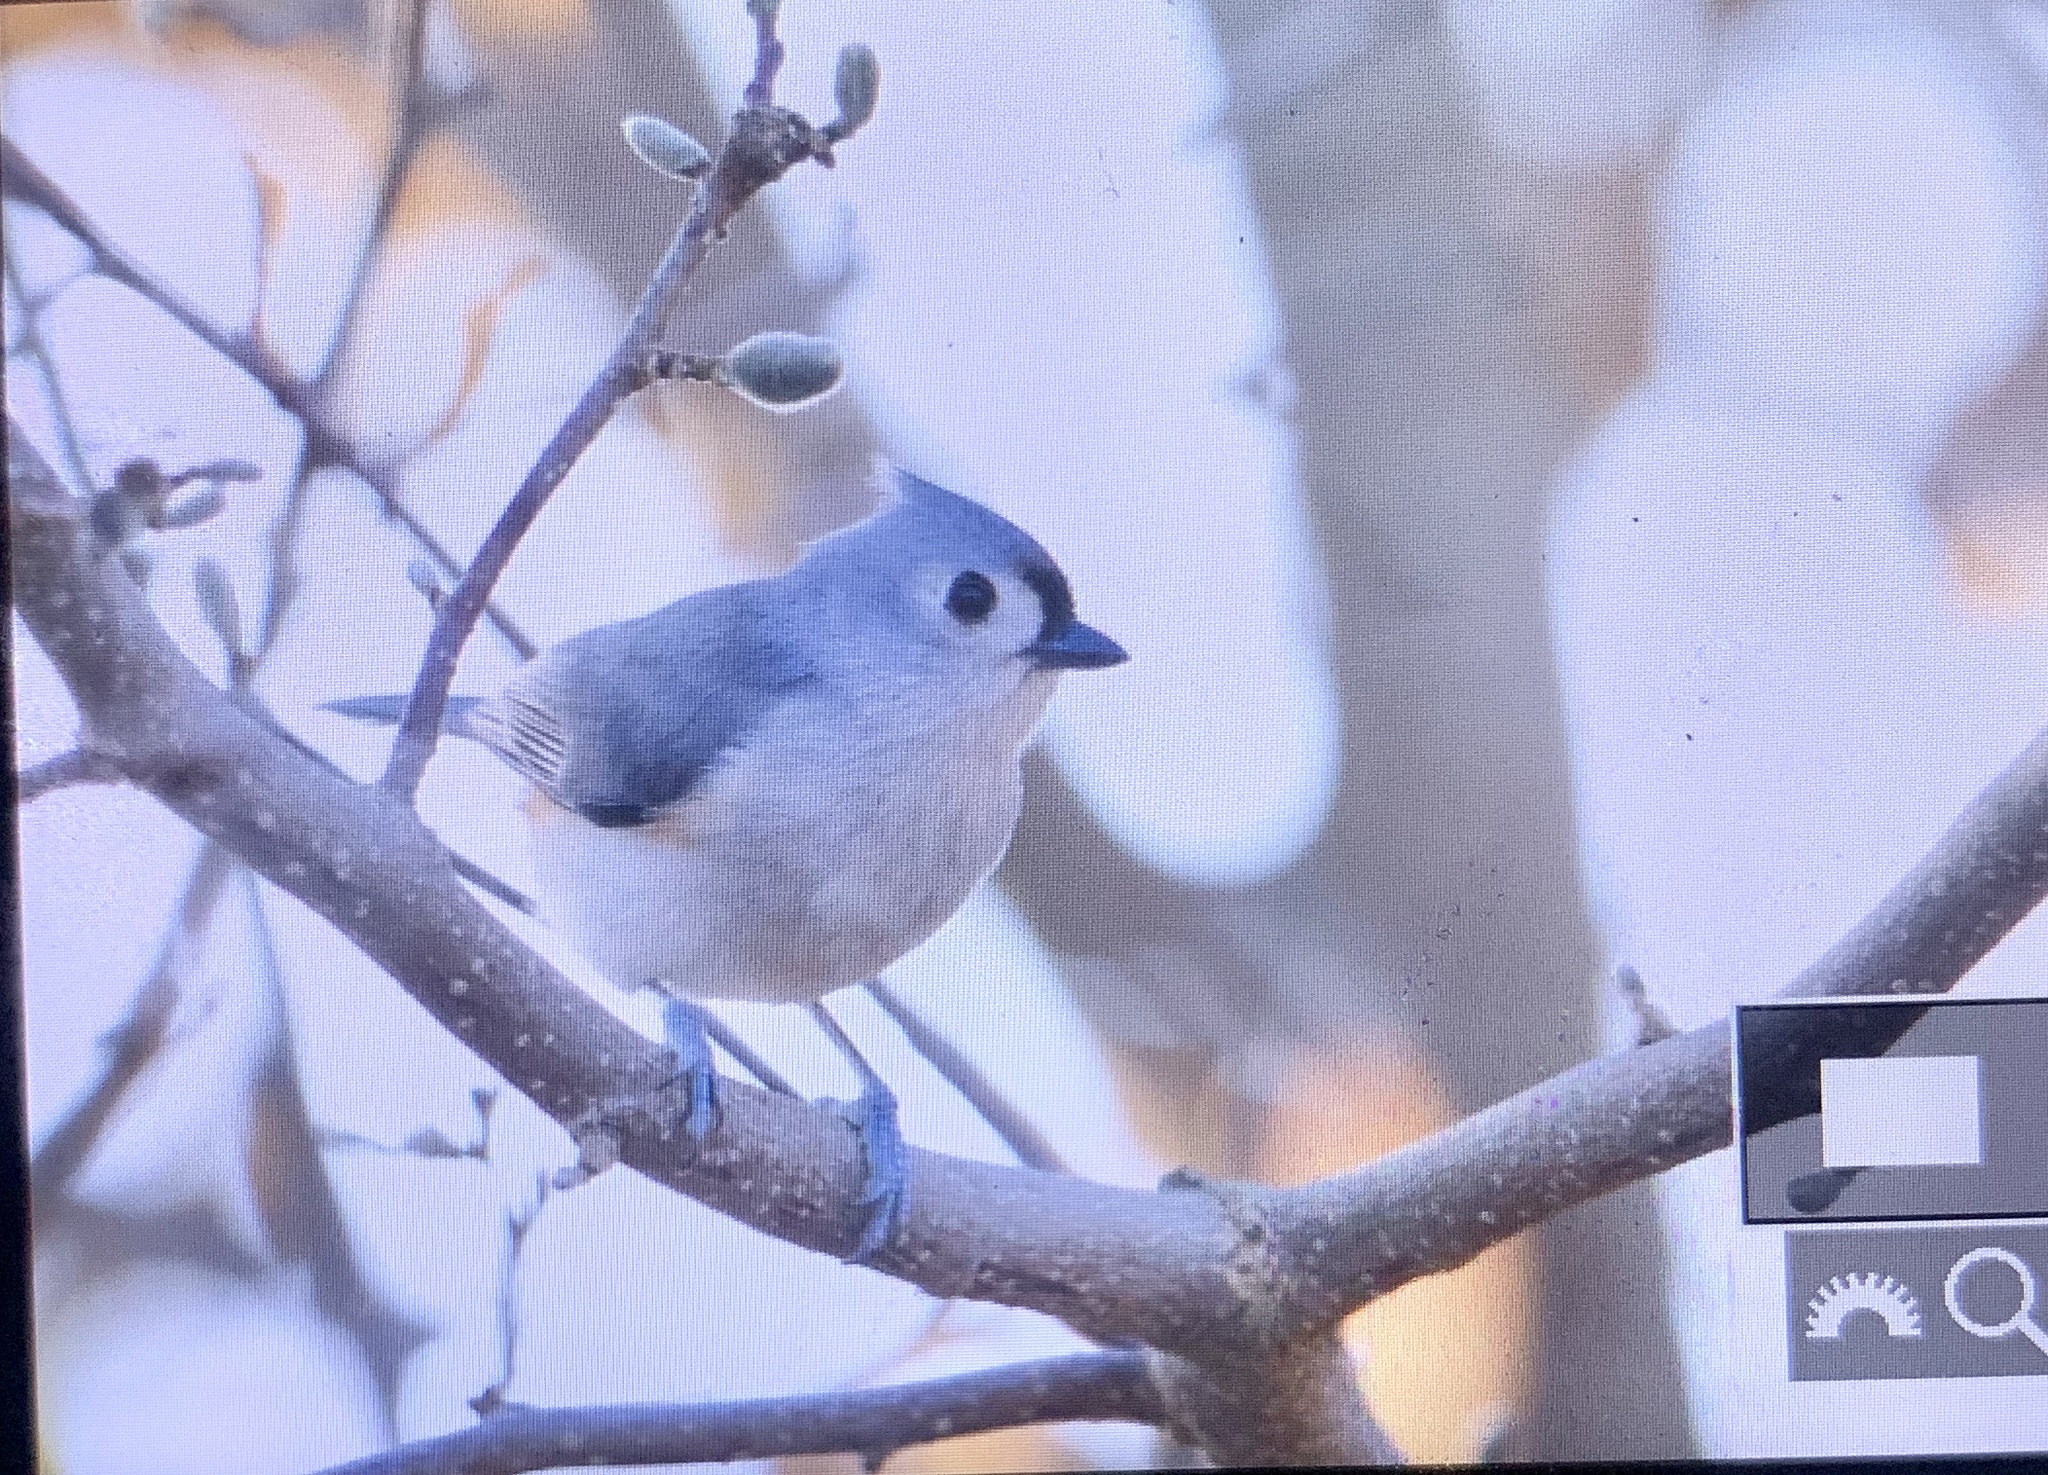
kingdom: Animalia
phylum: Chordata
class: Aves
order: Passeriformes
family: Paridae
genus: Baeolophus
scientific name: Baeolophus bicolor
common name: Tufted titmouse
